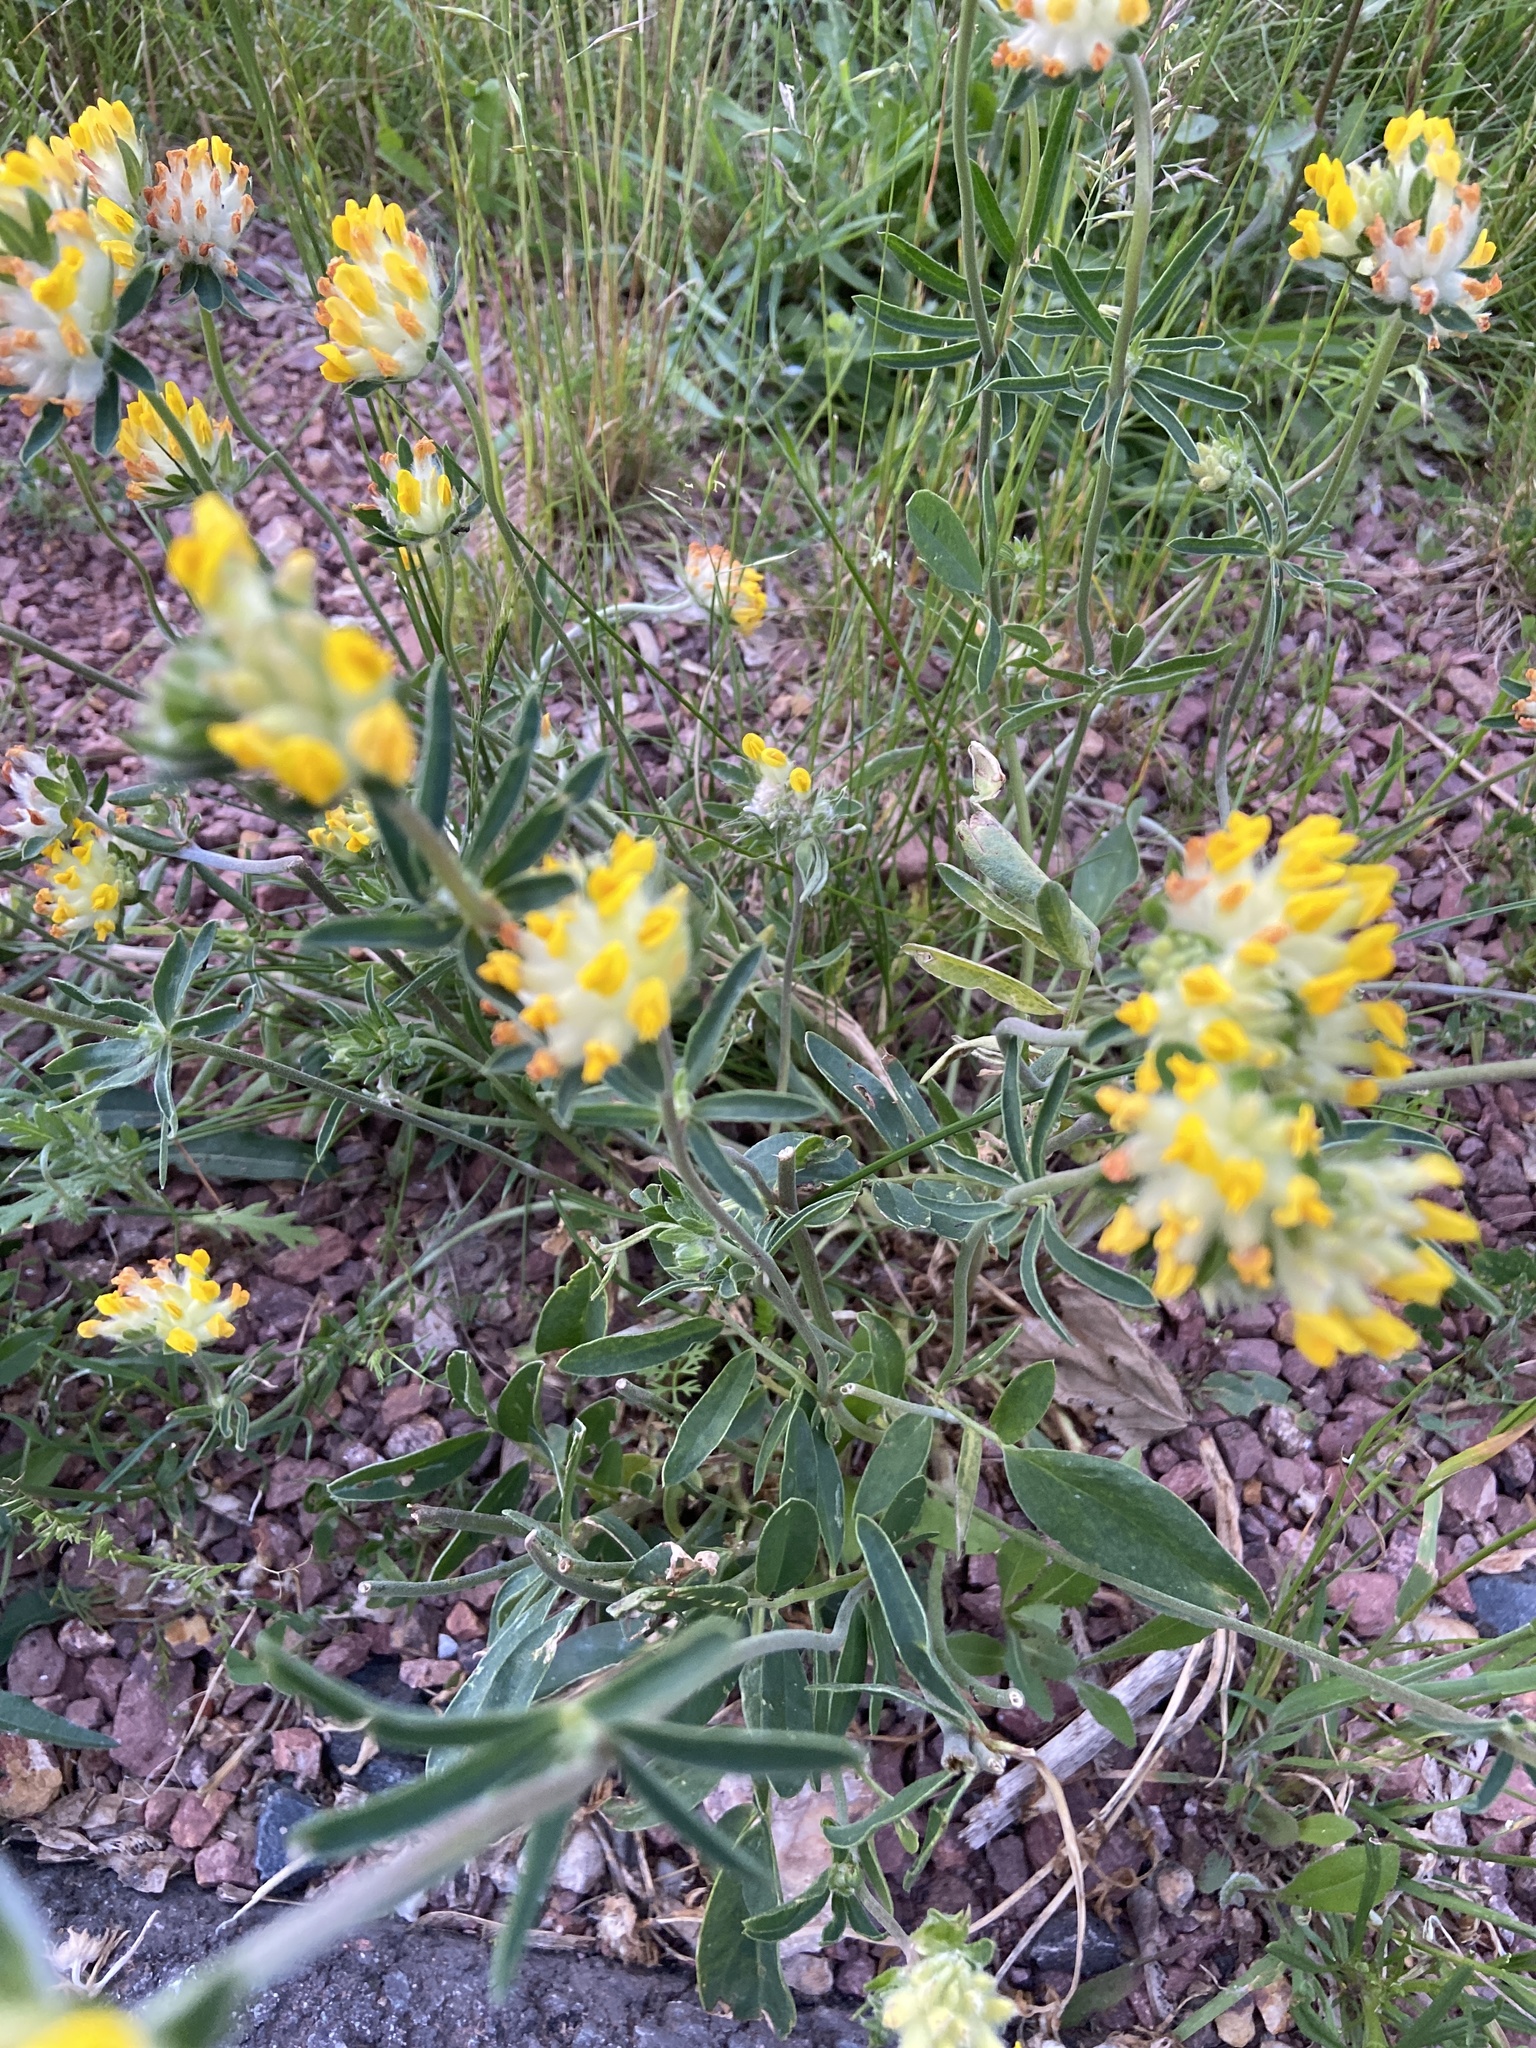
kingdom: Plantae
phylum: Tracheophyta
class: Magnoliopsida
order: Fabales
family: Fabaceae
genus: Anthyllis
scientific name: Anthyllis vulneraria
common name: Kidney vetch
